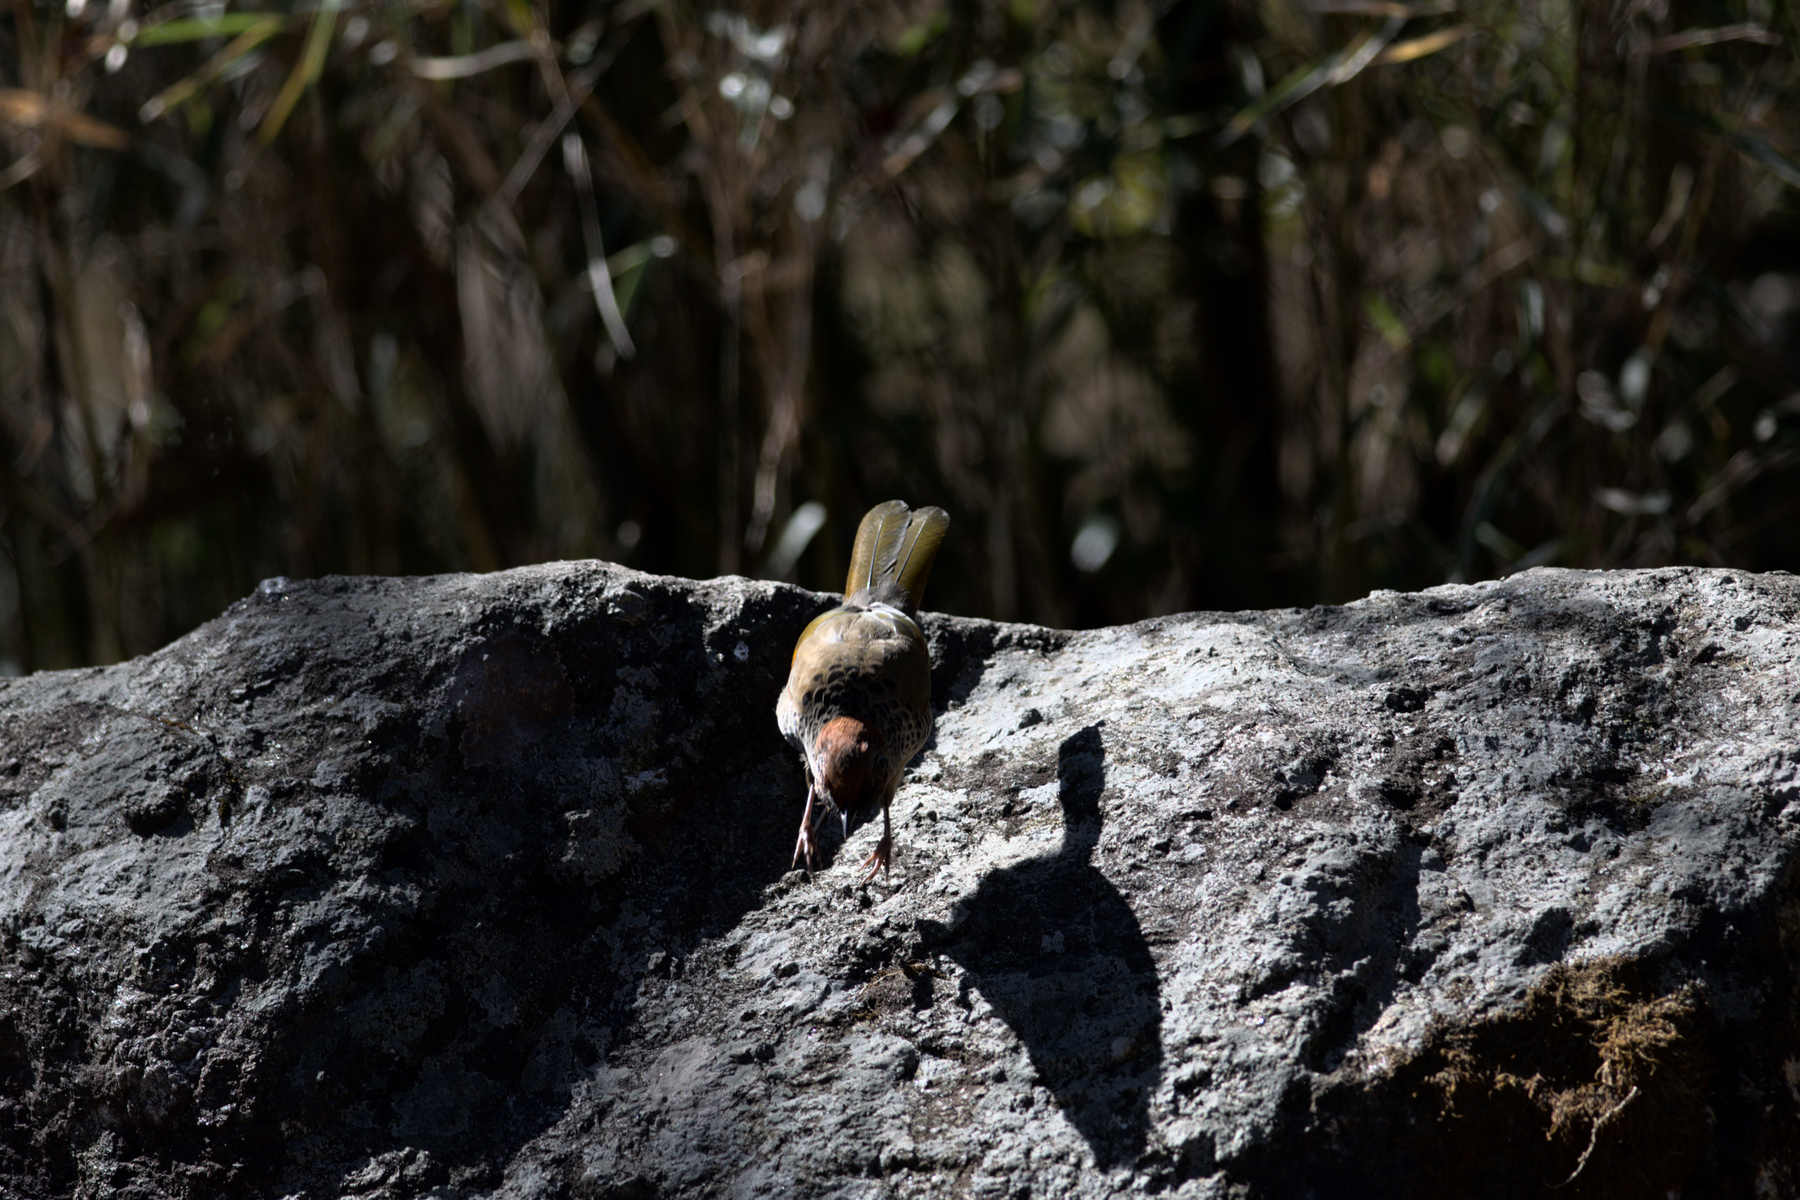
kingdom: Animalia
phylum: Chordata
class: Aves
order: Passeriformes
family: Leiothrichidae
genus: Trochalopteron
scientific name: Trochalopteron erythrocephalum
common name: Chestnut-crowned laughingthrush
